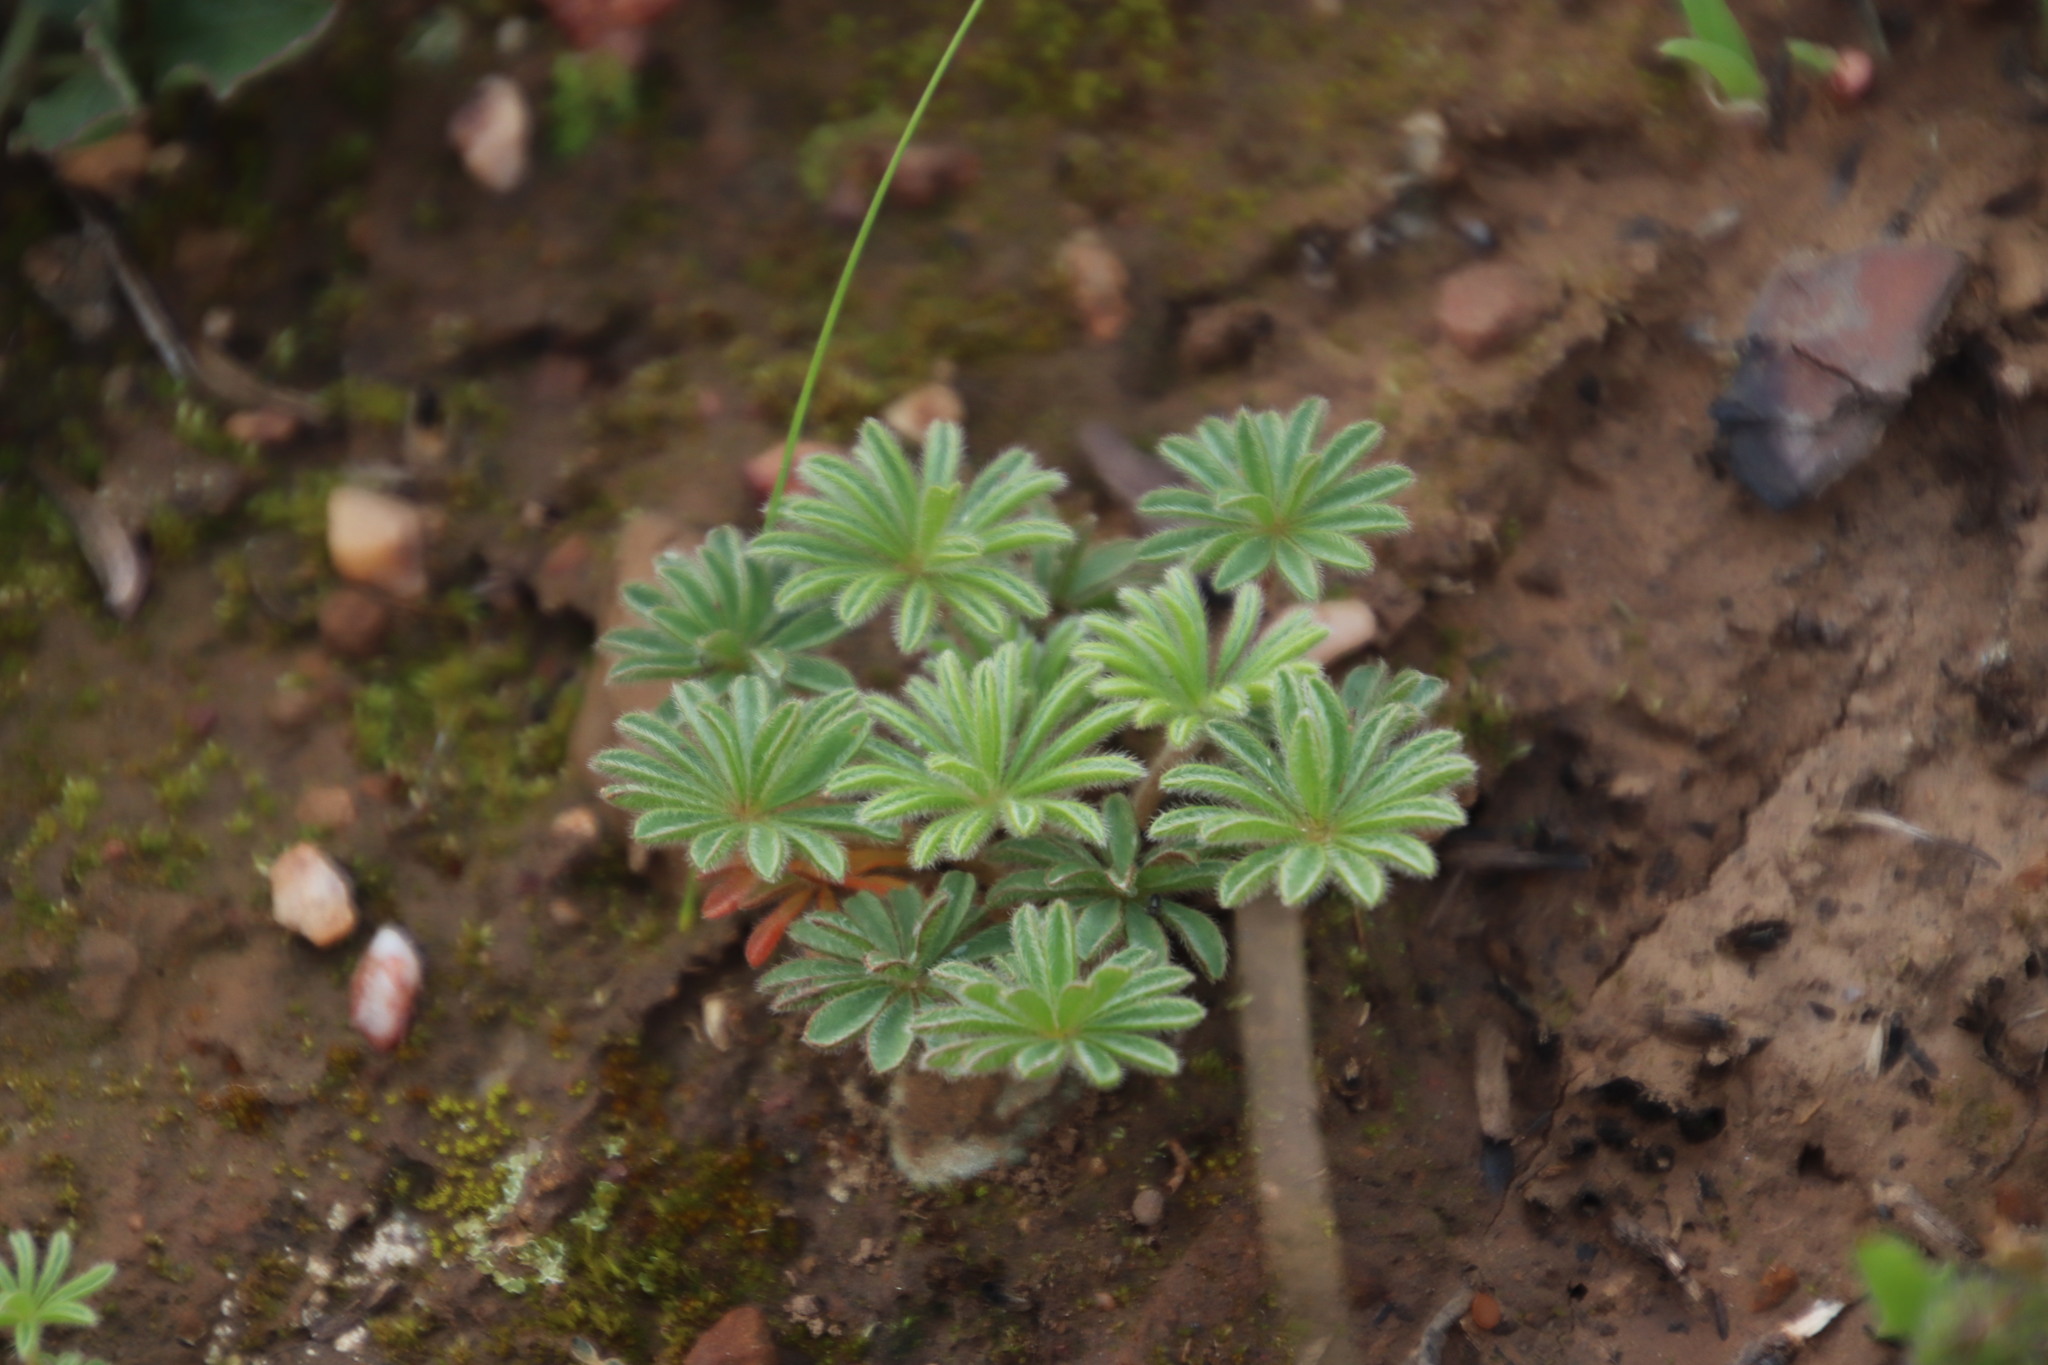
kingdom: Plantae
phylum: Tracheophyta
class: Magnoliopsida
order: Oxalidales
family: Oxalidaceae
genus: Oxalis
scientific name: Oxalis tomentosa
